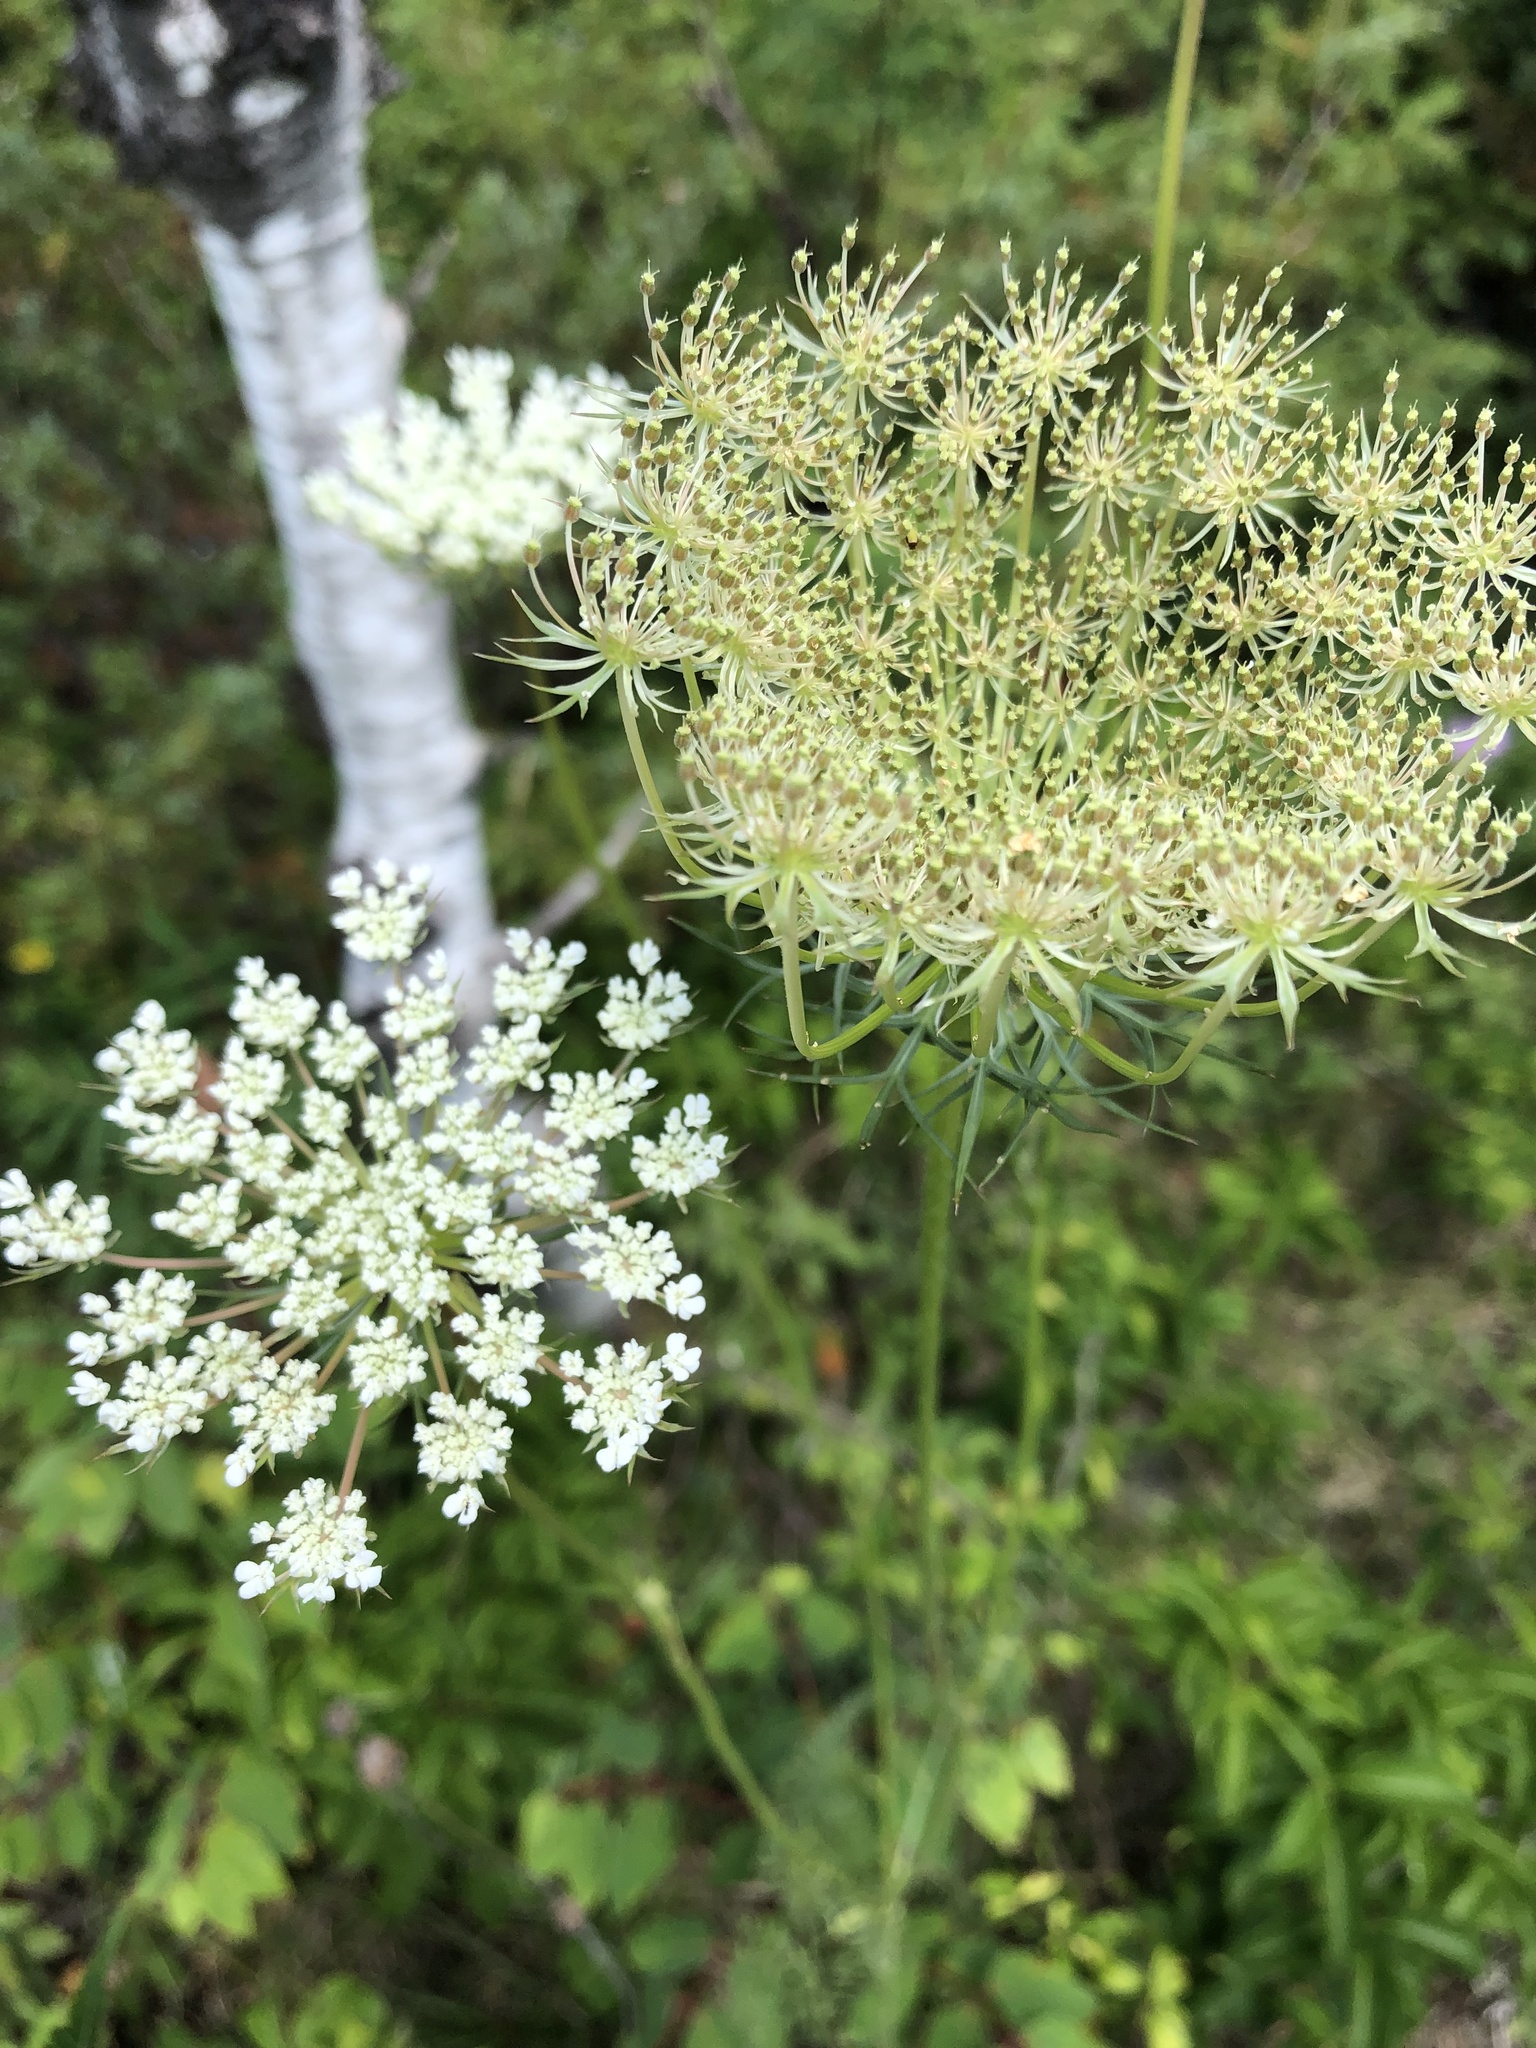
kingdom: Plantae
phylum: Tracheophyta
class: Magnoliopsida
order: Apiales
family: Apiaceae
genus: Daucus
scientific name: Daucus carota
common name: Wild carrot
